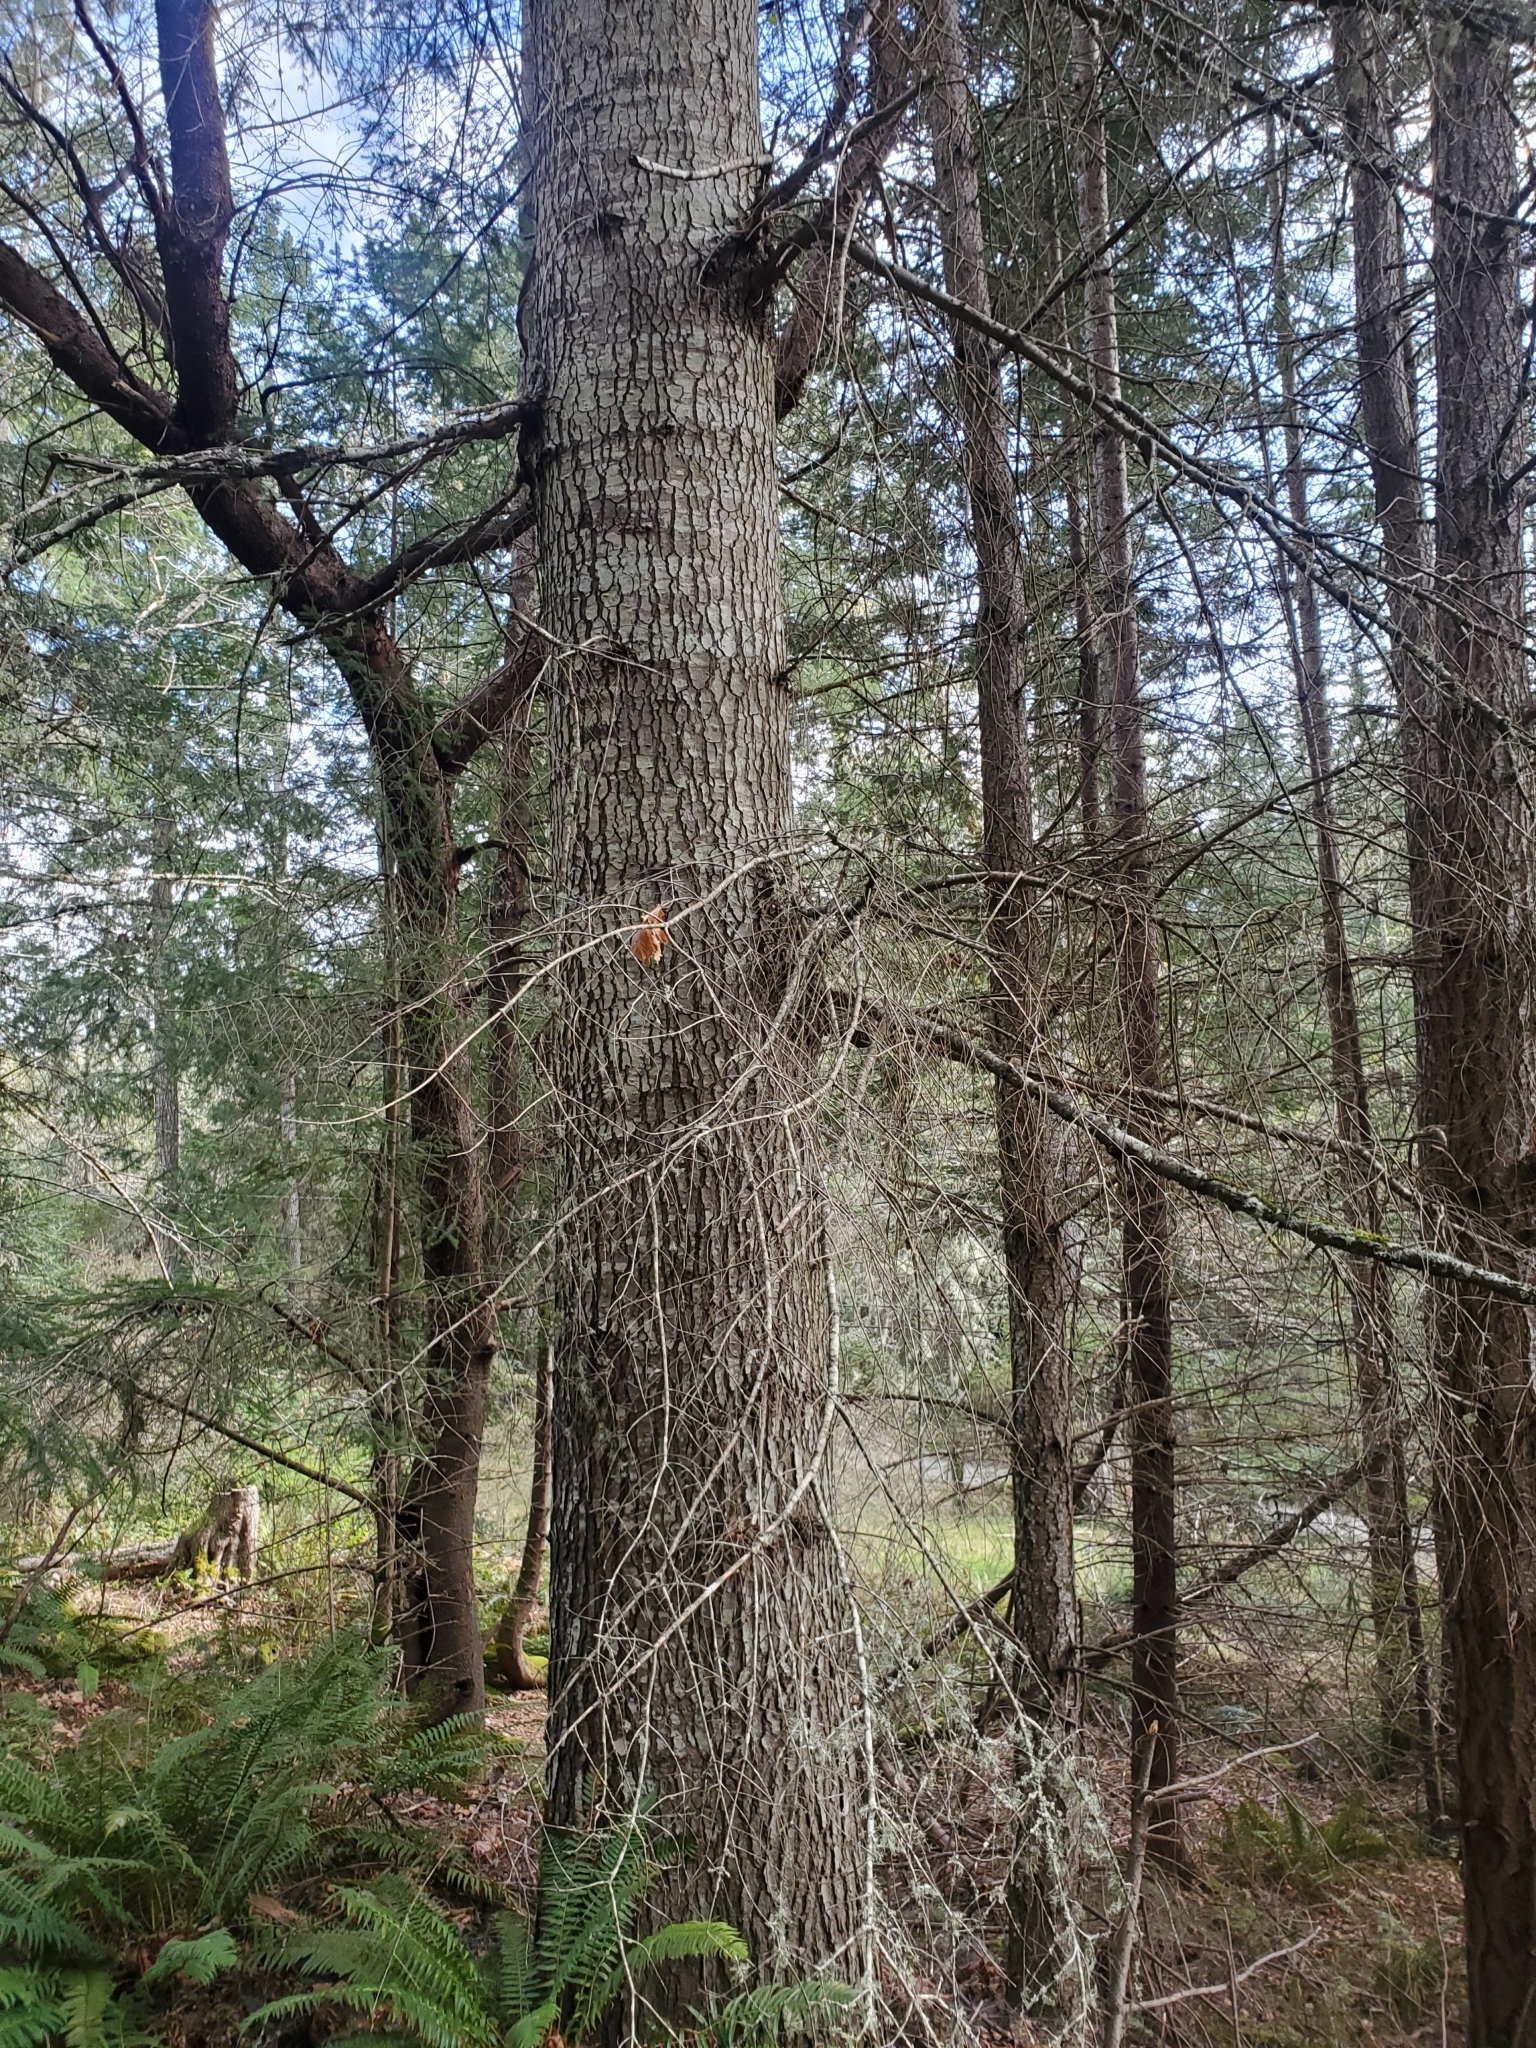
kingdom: Plantae
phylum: Tracheophyta
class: Pinopsida
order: Pinales
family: Pinaceae
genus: Abies
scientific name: Abies grandis
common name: Giant fir
